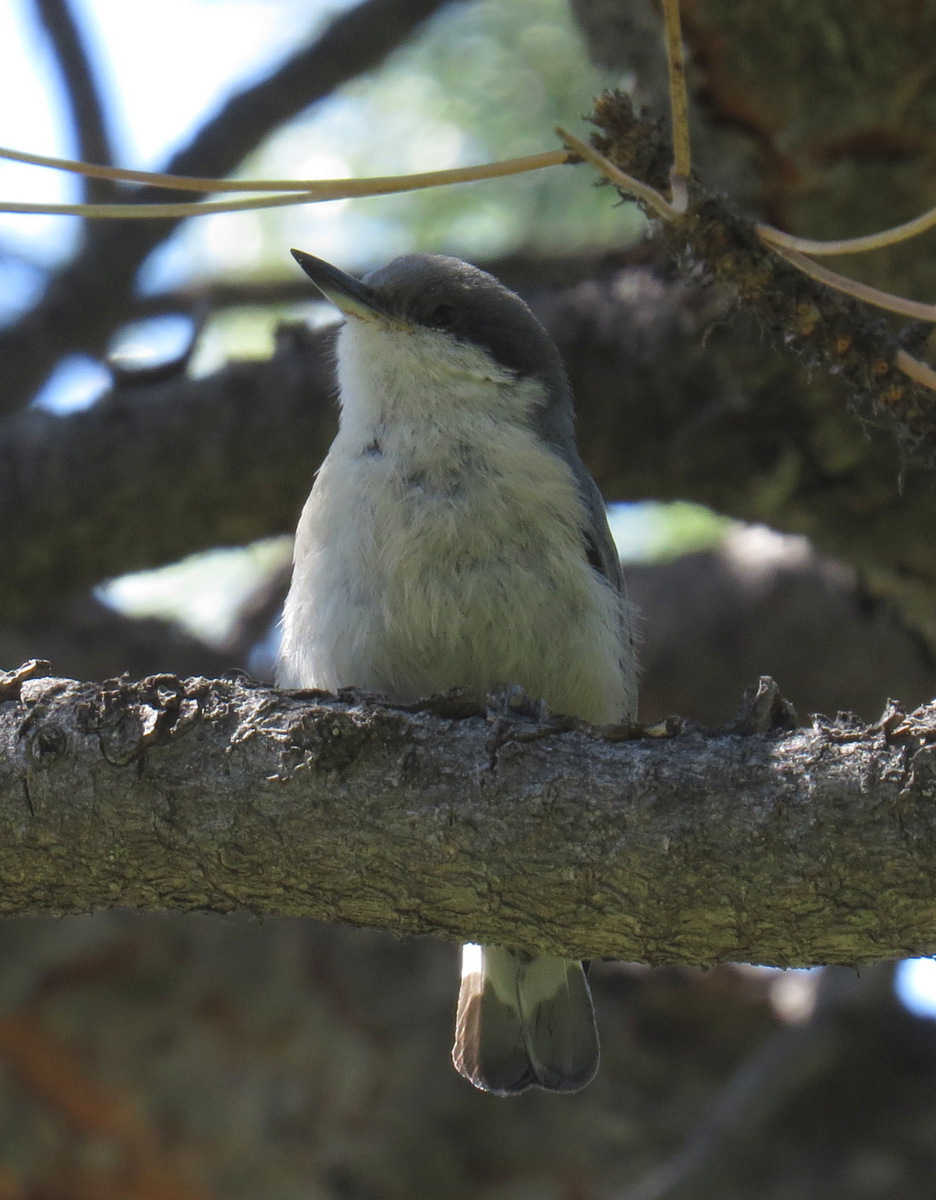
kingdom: Animalia
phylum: Chordata
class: Aves
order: Passeriformes
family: Sittidae
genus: Sitta
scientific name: Sitta pygmaea
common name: Pygmy nuthatch
